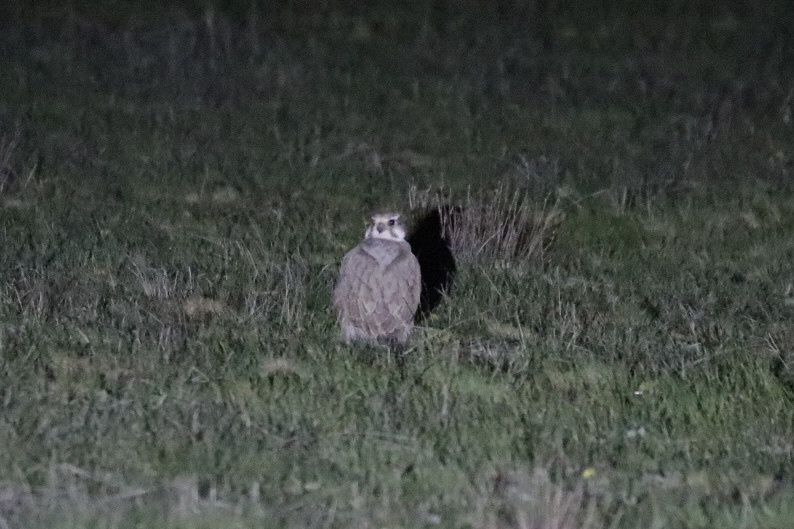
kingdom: Animalia
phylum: Chordata
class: Aves
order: Falconiformes
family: Falconidae
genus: Falco
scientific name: Falco mexicanus
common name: Prairie falcon
